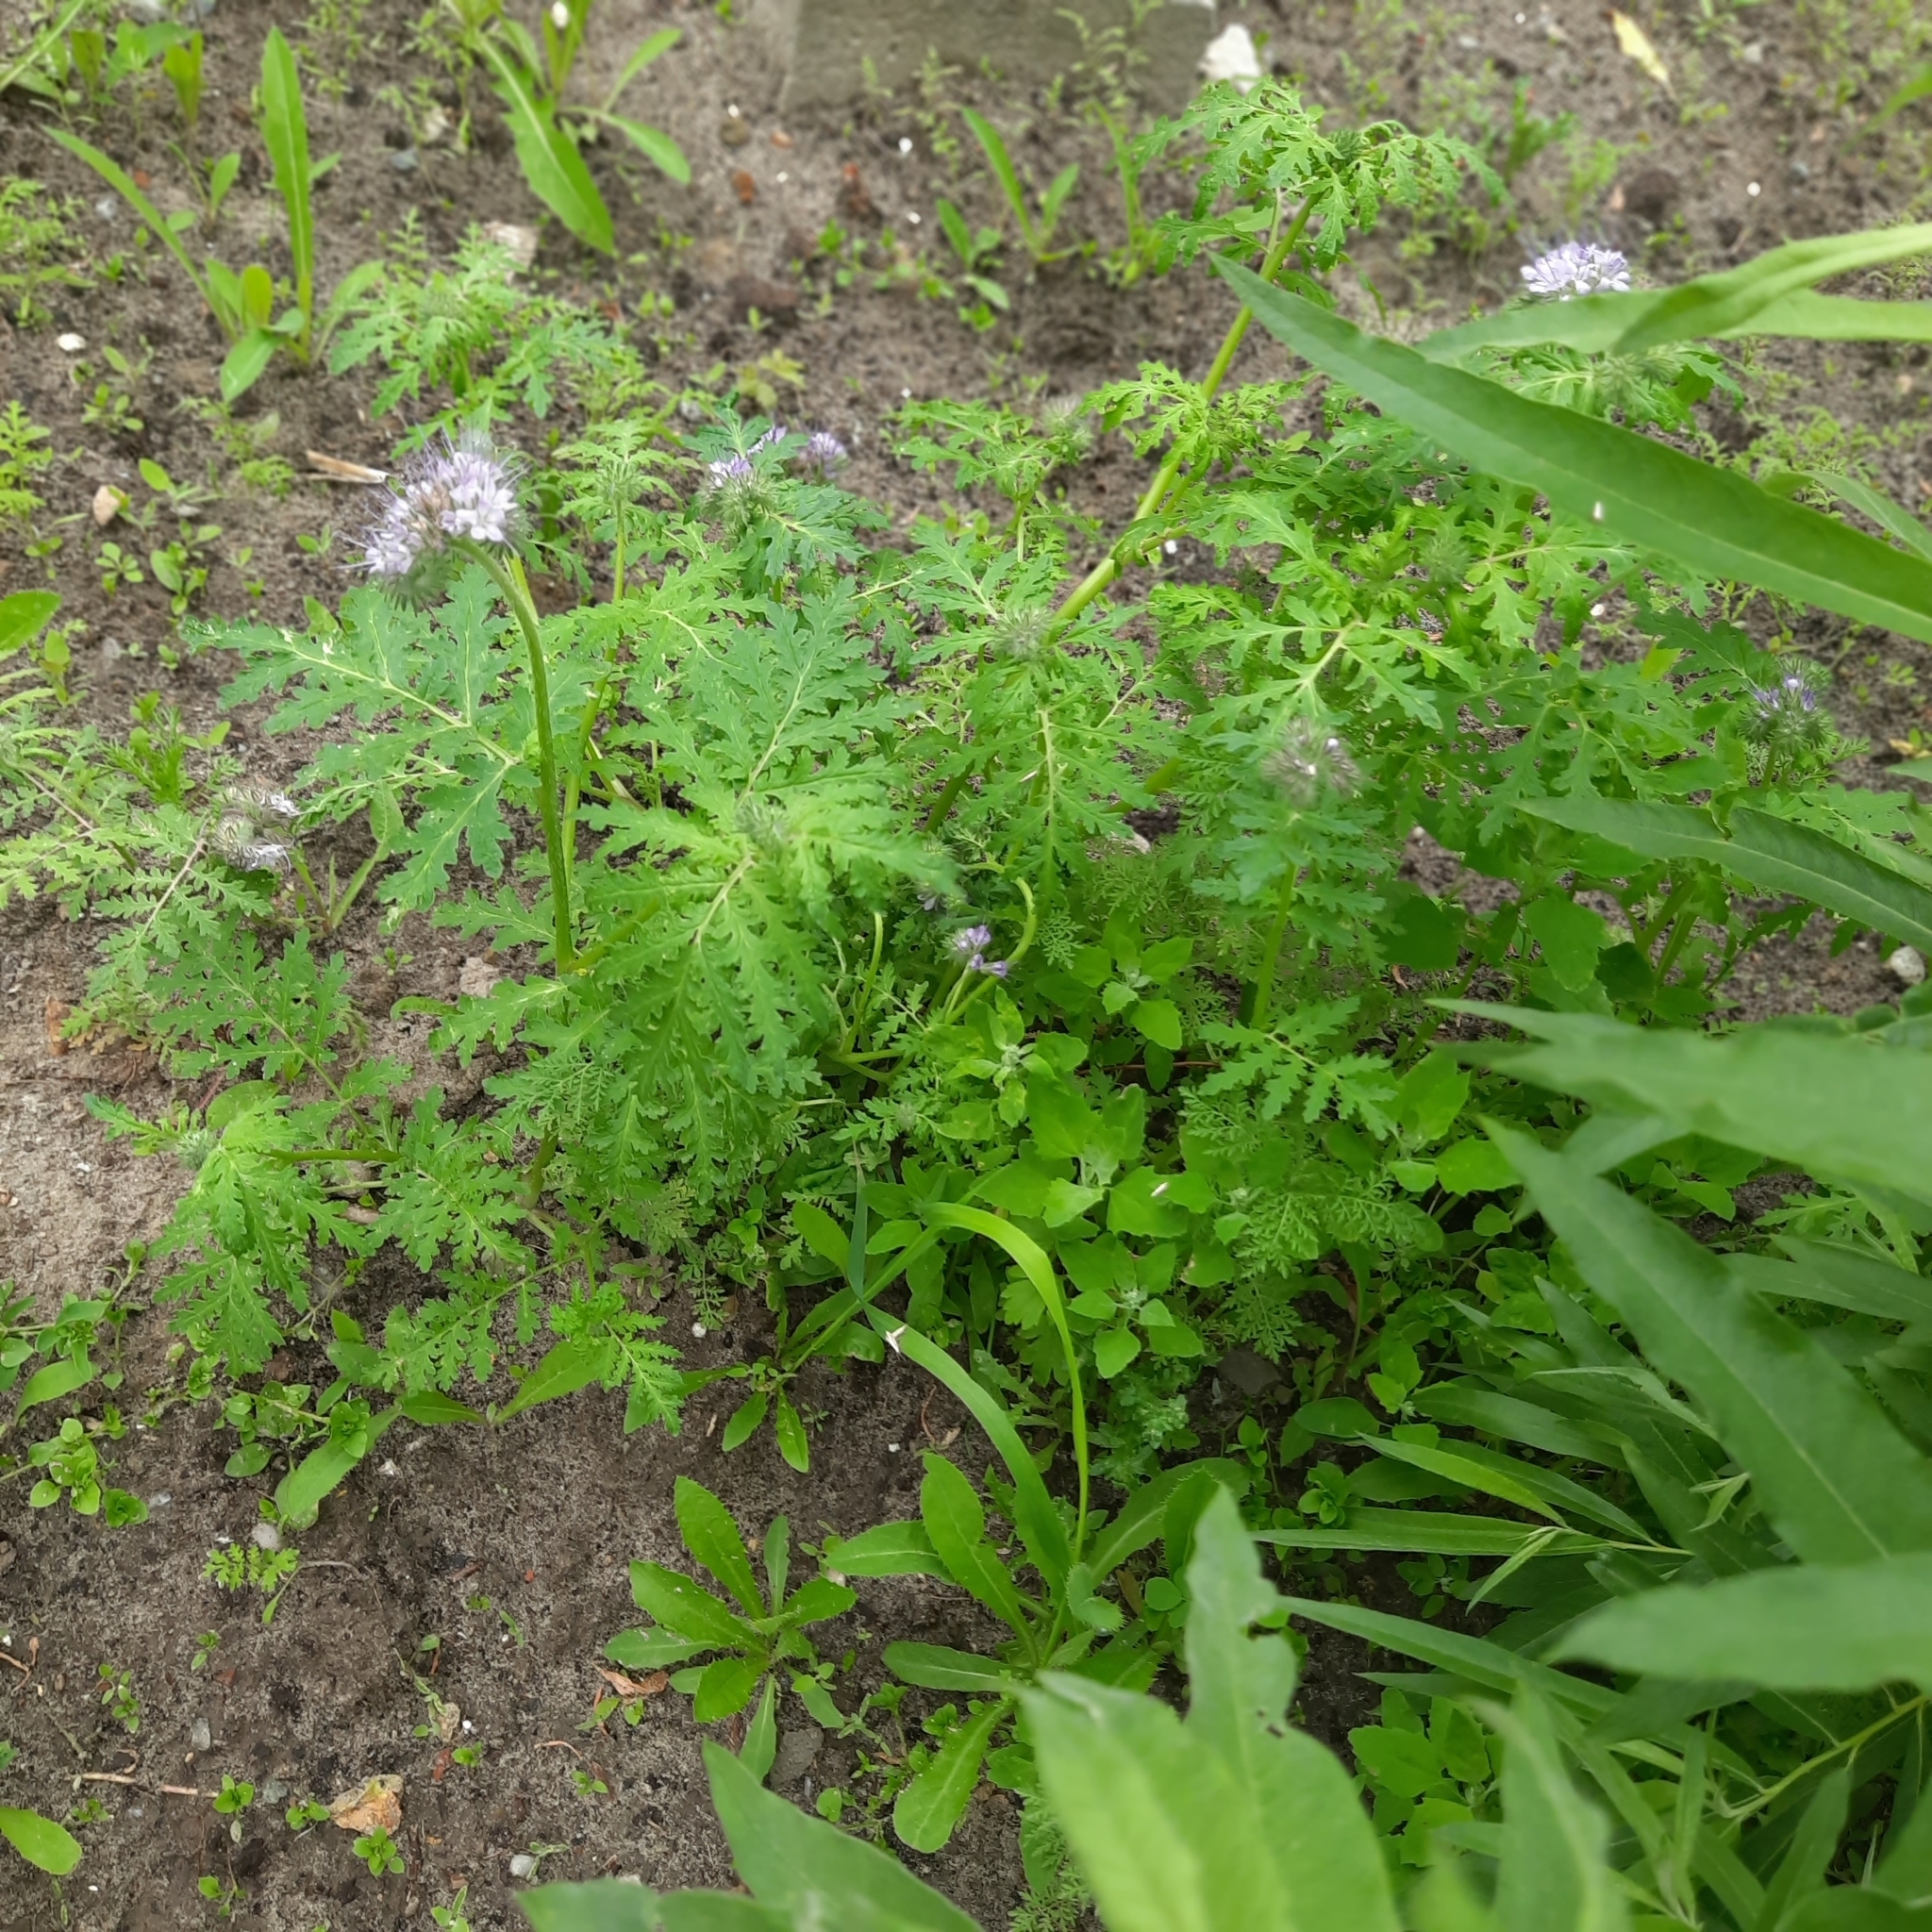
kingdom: Plantae
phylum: Tracheophyta
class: Magnoliopsida
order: Boraginales
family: Hydrophyllaceae
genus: Phacelia
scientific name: Phacelia tanacetifolia
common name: Phacelia
